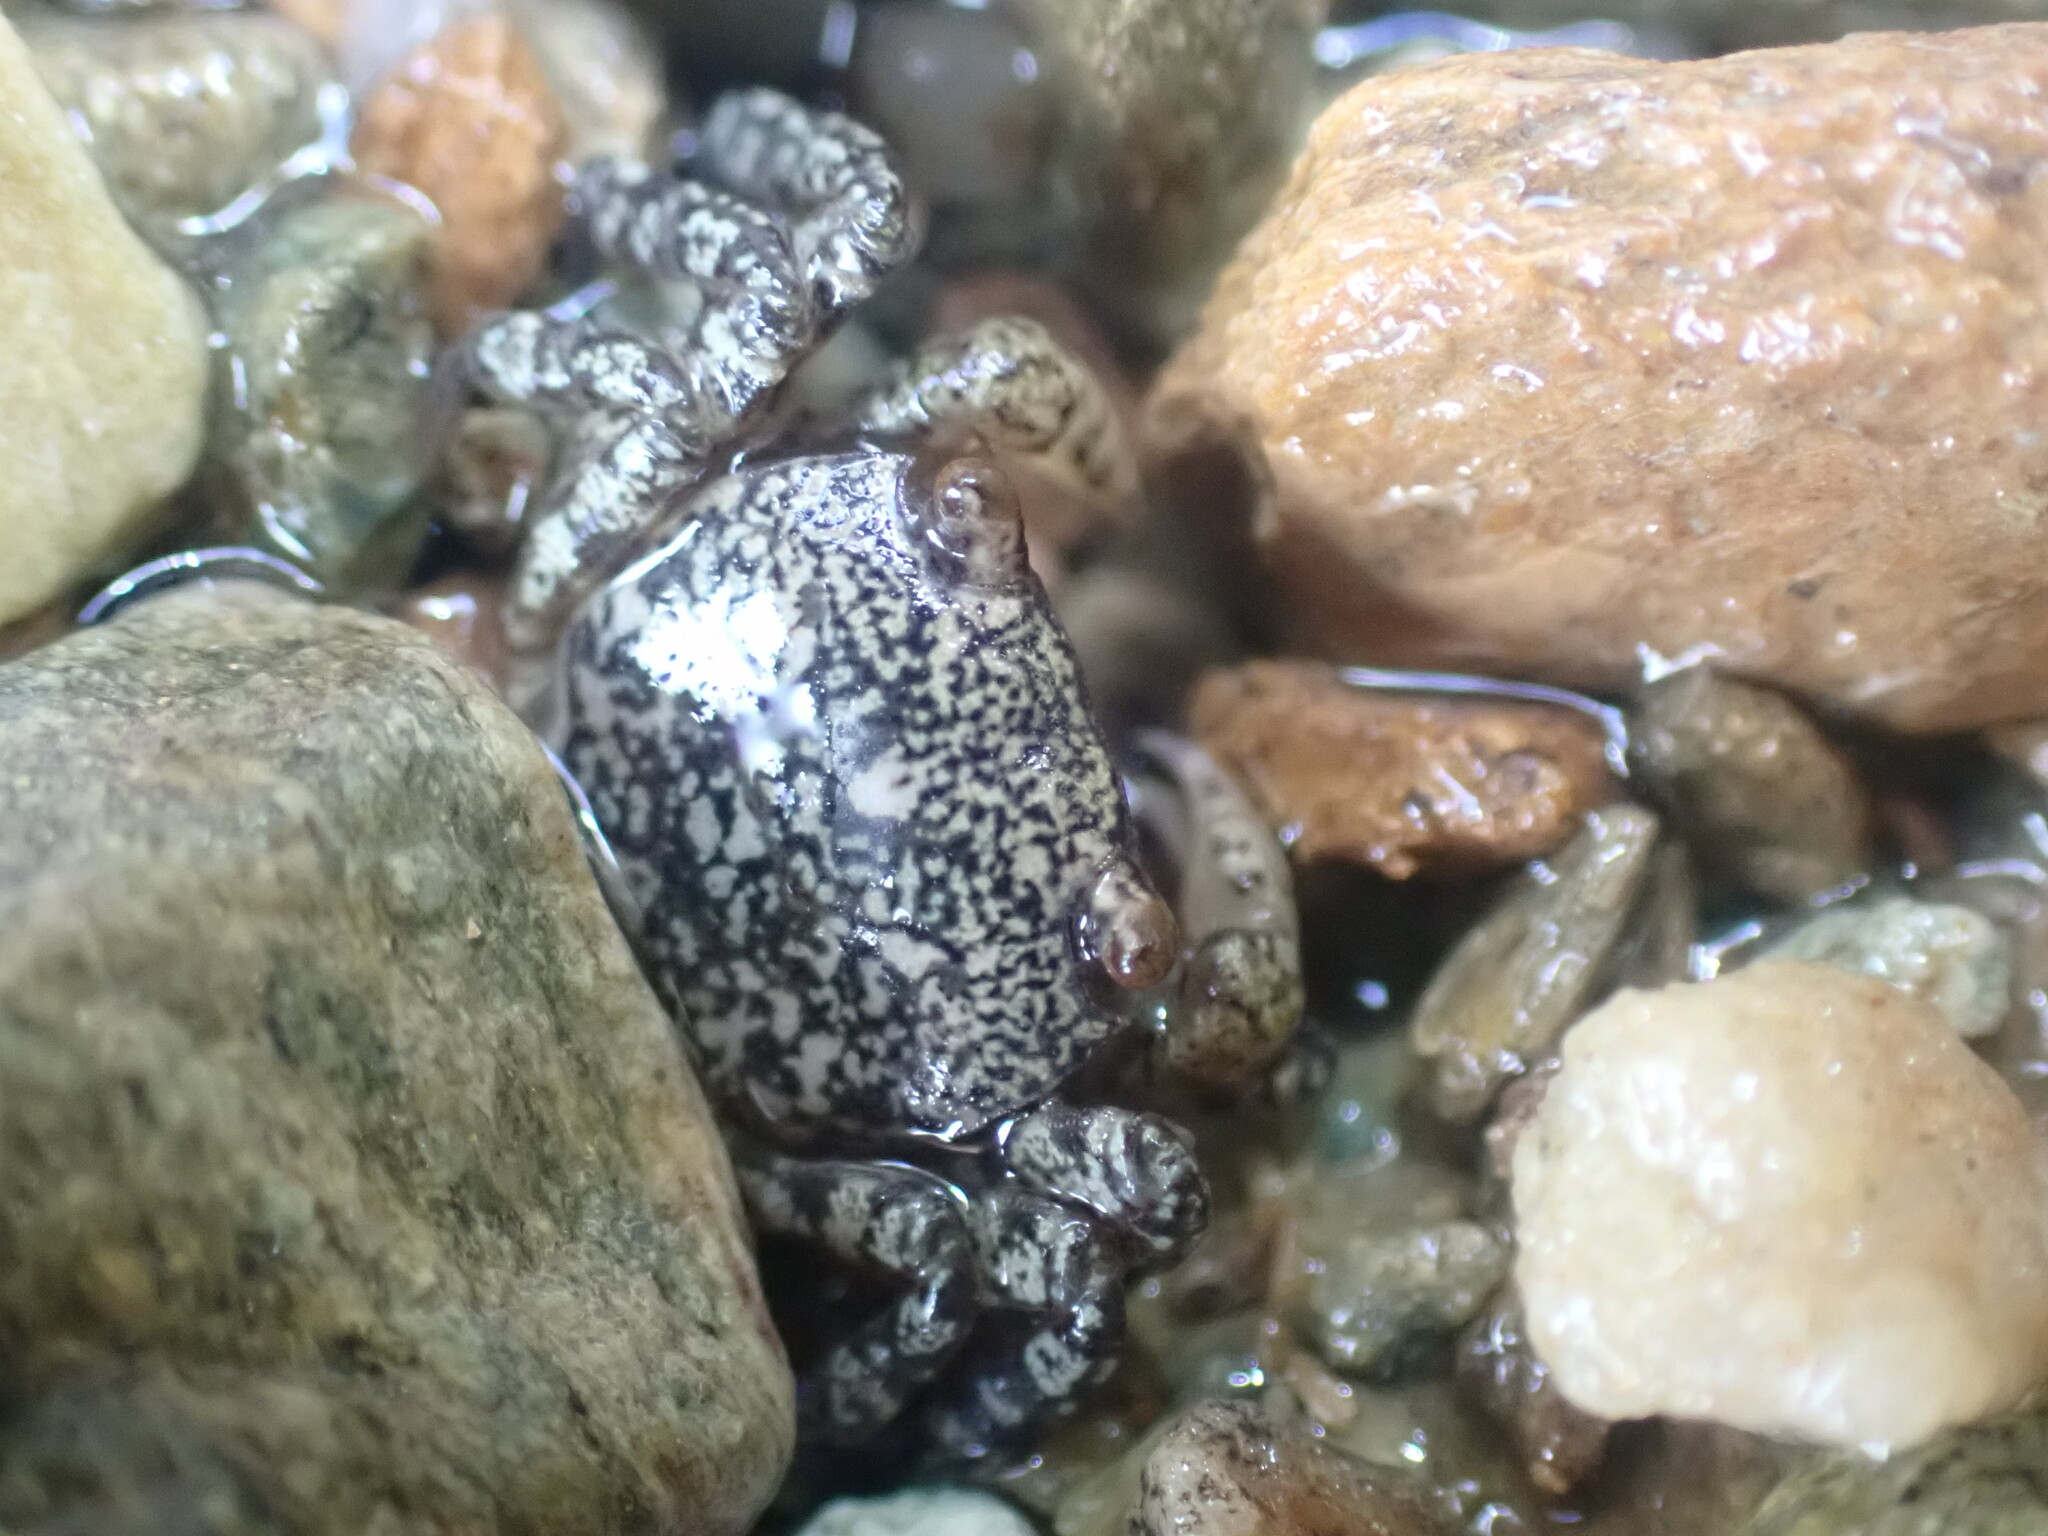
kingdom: Animalia
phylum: Arthropoda
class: Malacostraca
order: Decapoda
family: Varunidae
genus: Cyclograpsus
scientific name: Cyclograpsus lavauxi
